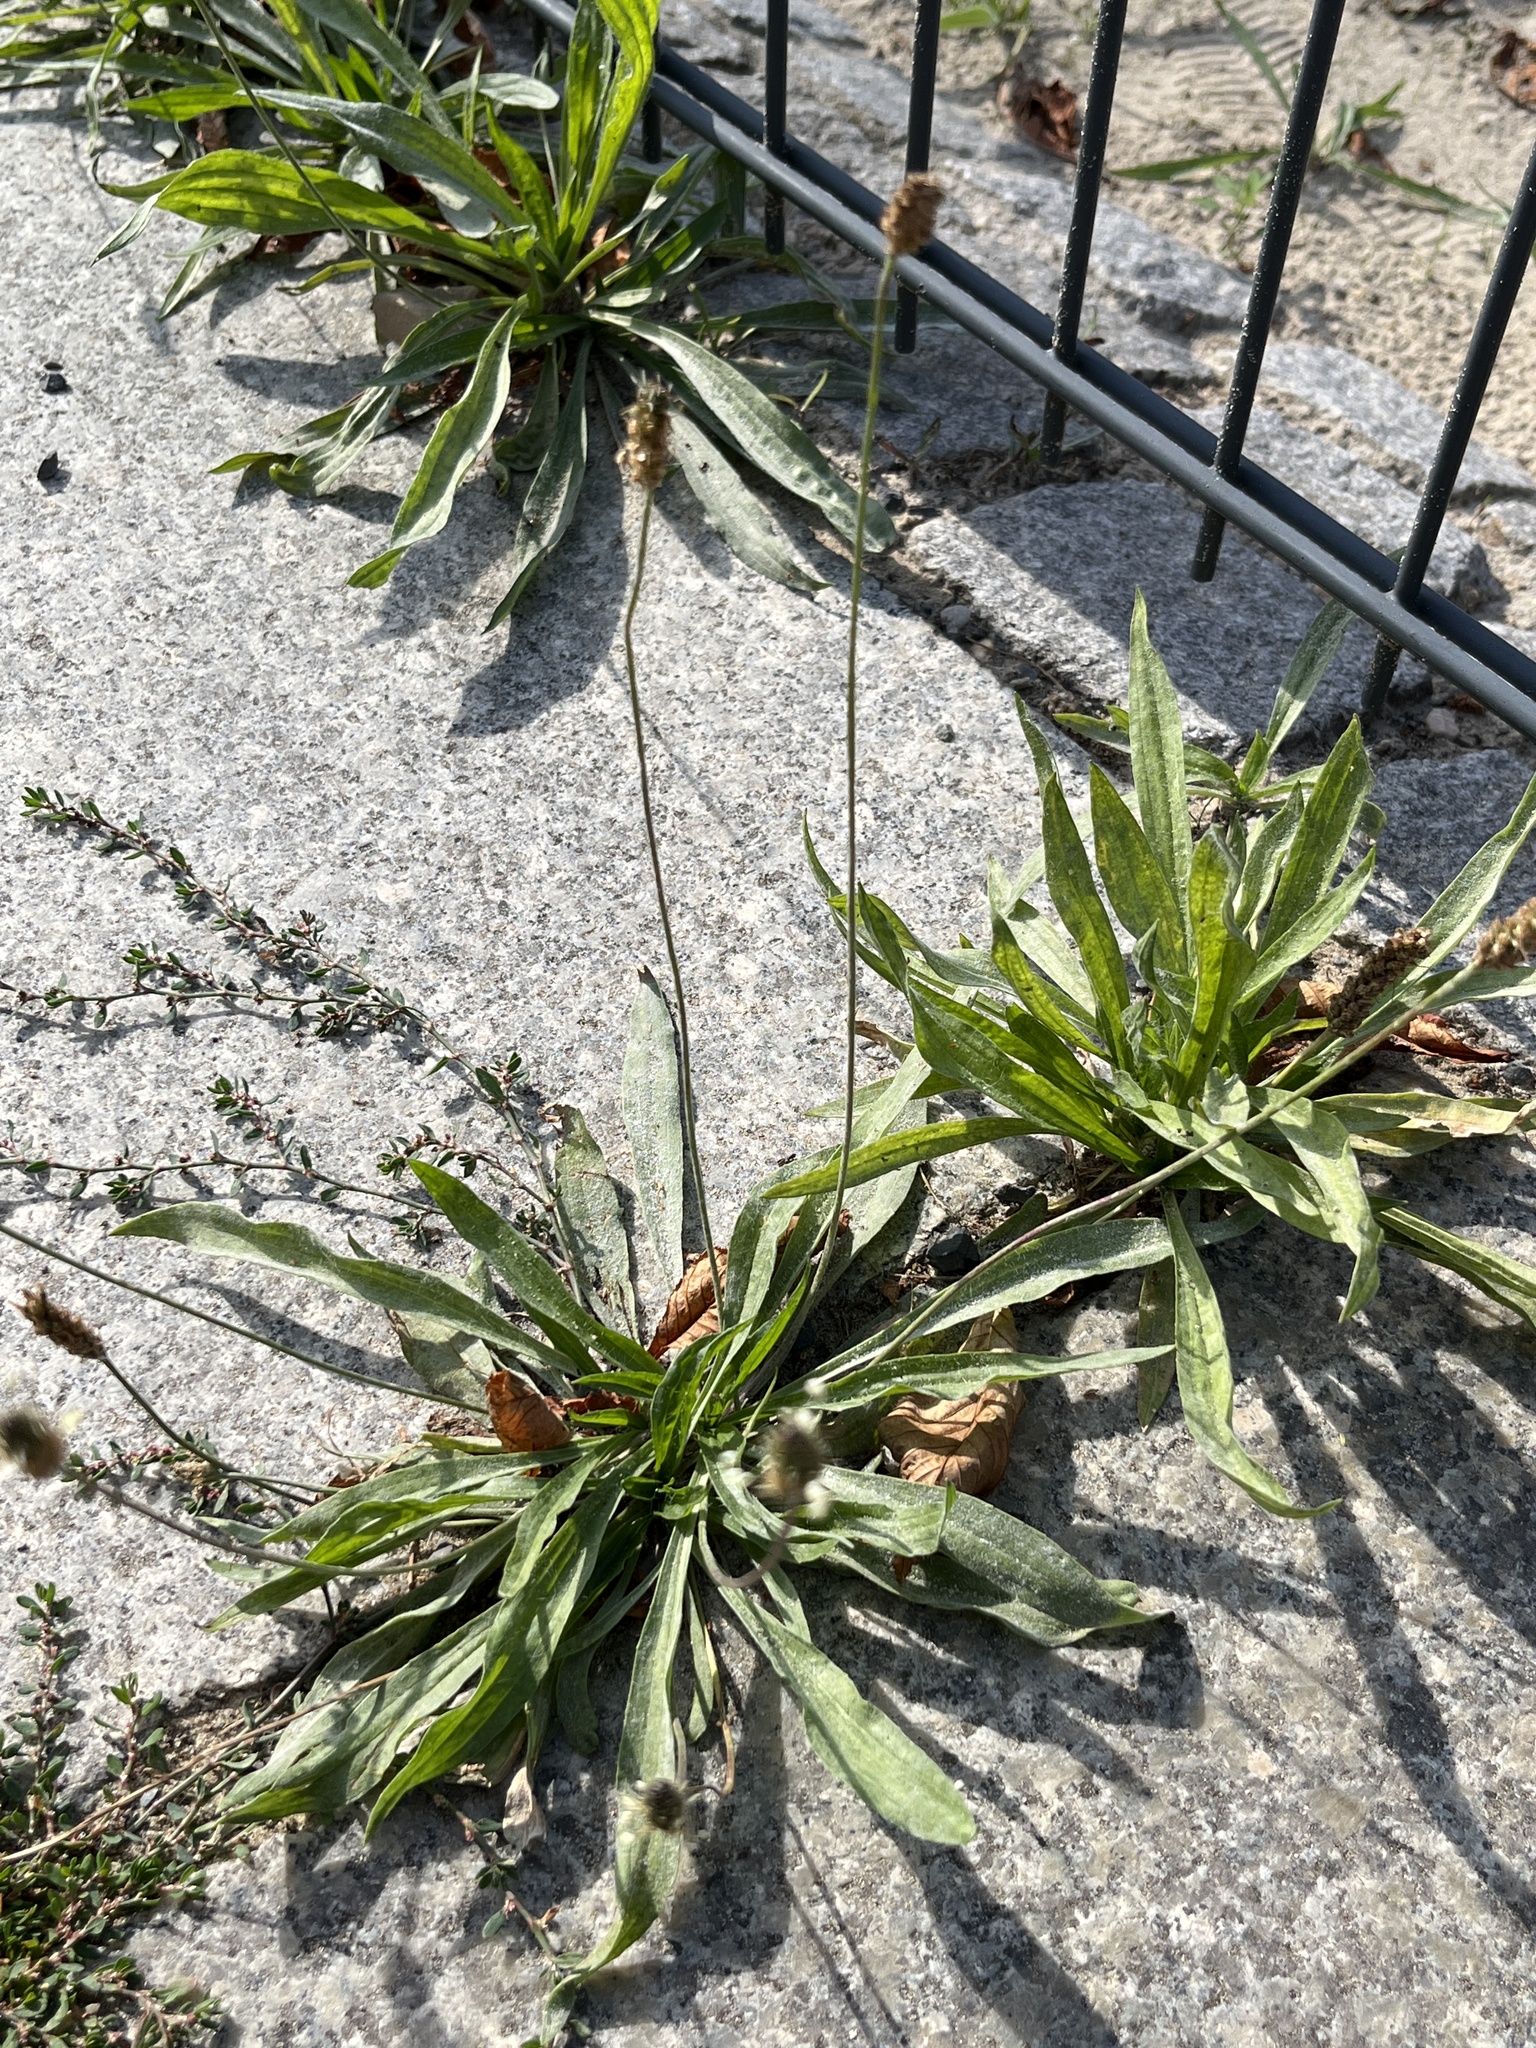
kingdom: Plantae
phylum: Tracheophyta
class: Magnoliopsida
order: Lamiales
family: Plantaginaceae
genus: Plantago
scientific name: Plantago lanceolata
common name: Ribwort plantain
